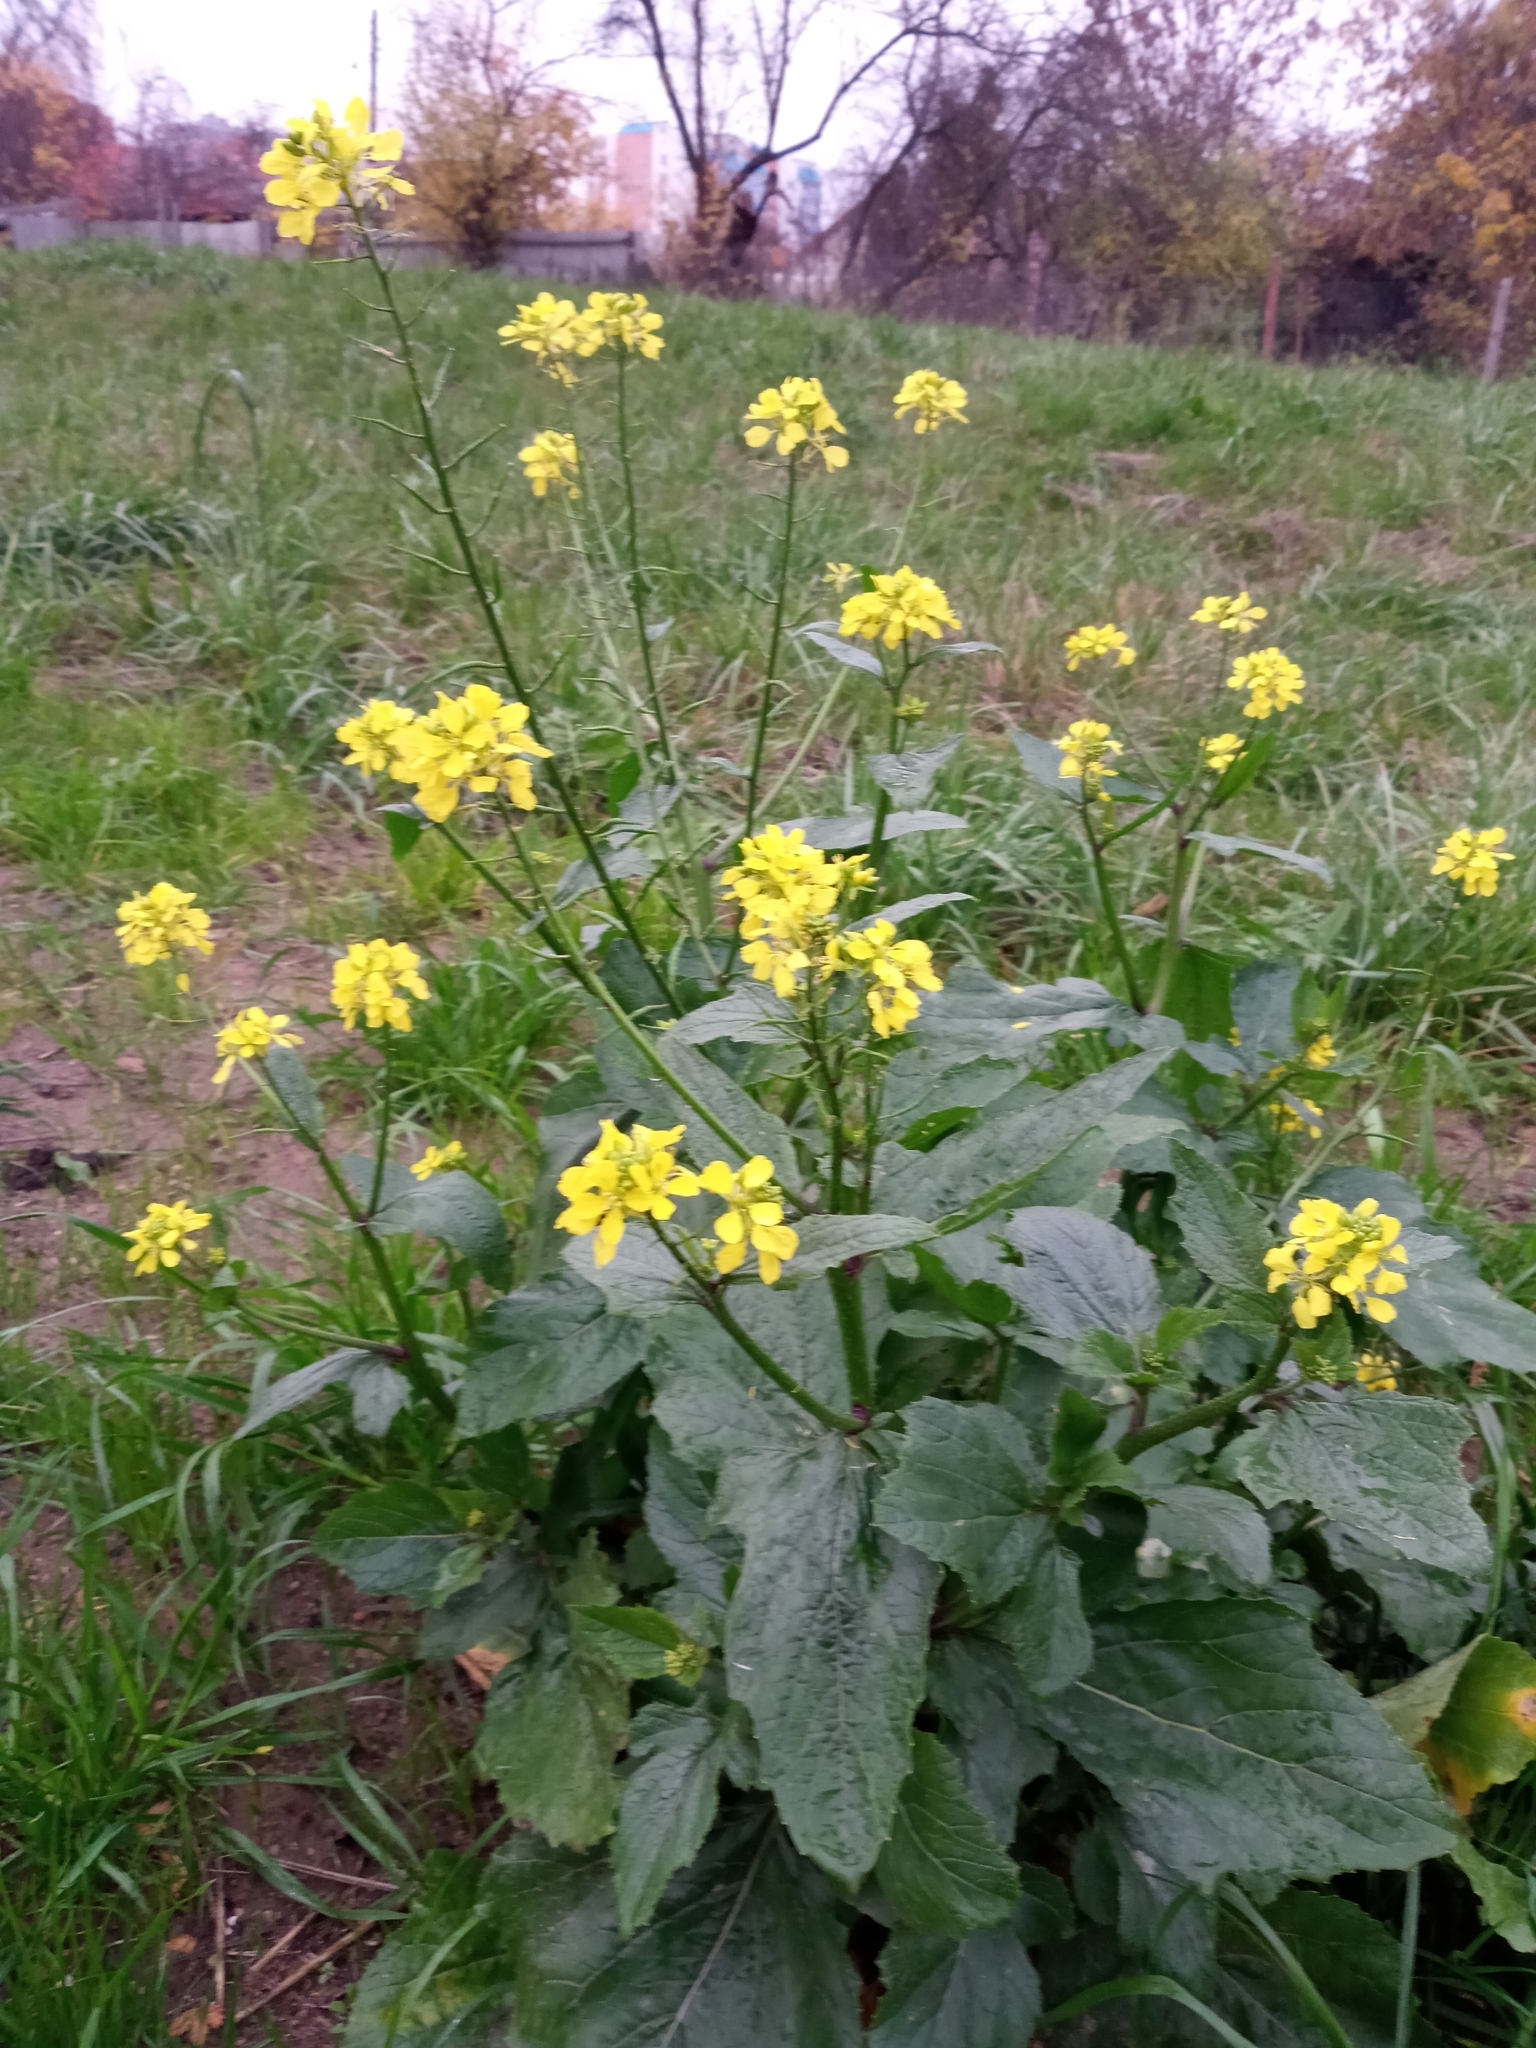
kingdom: Plantae
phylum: Tracheophyta
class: Magnoliopsida
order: Brassicales
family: Brassicaceae
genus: Sinapis
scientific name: Sinapis arvensis
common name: Charlock
